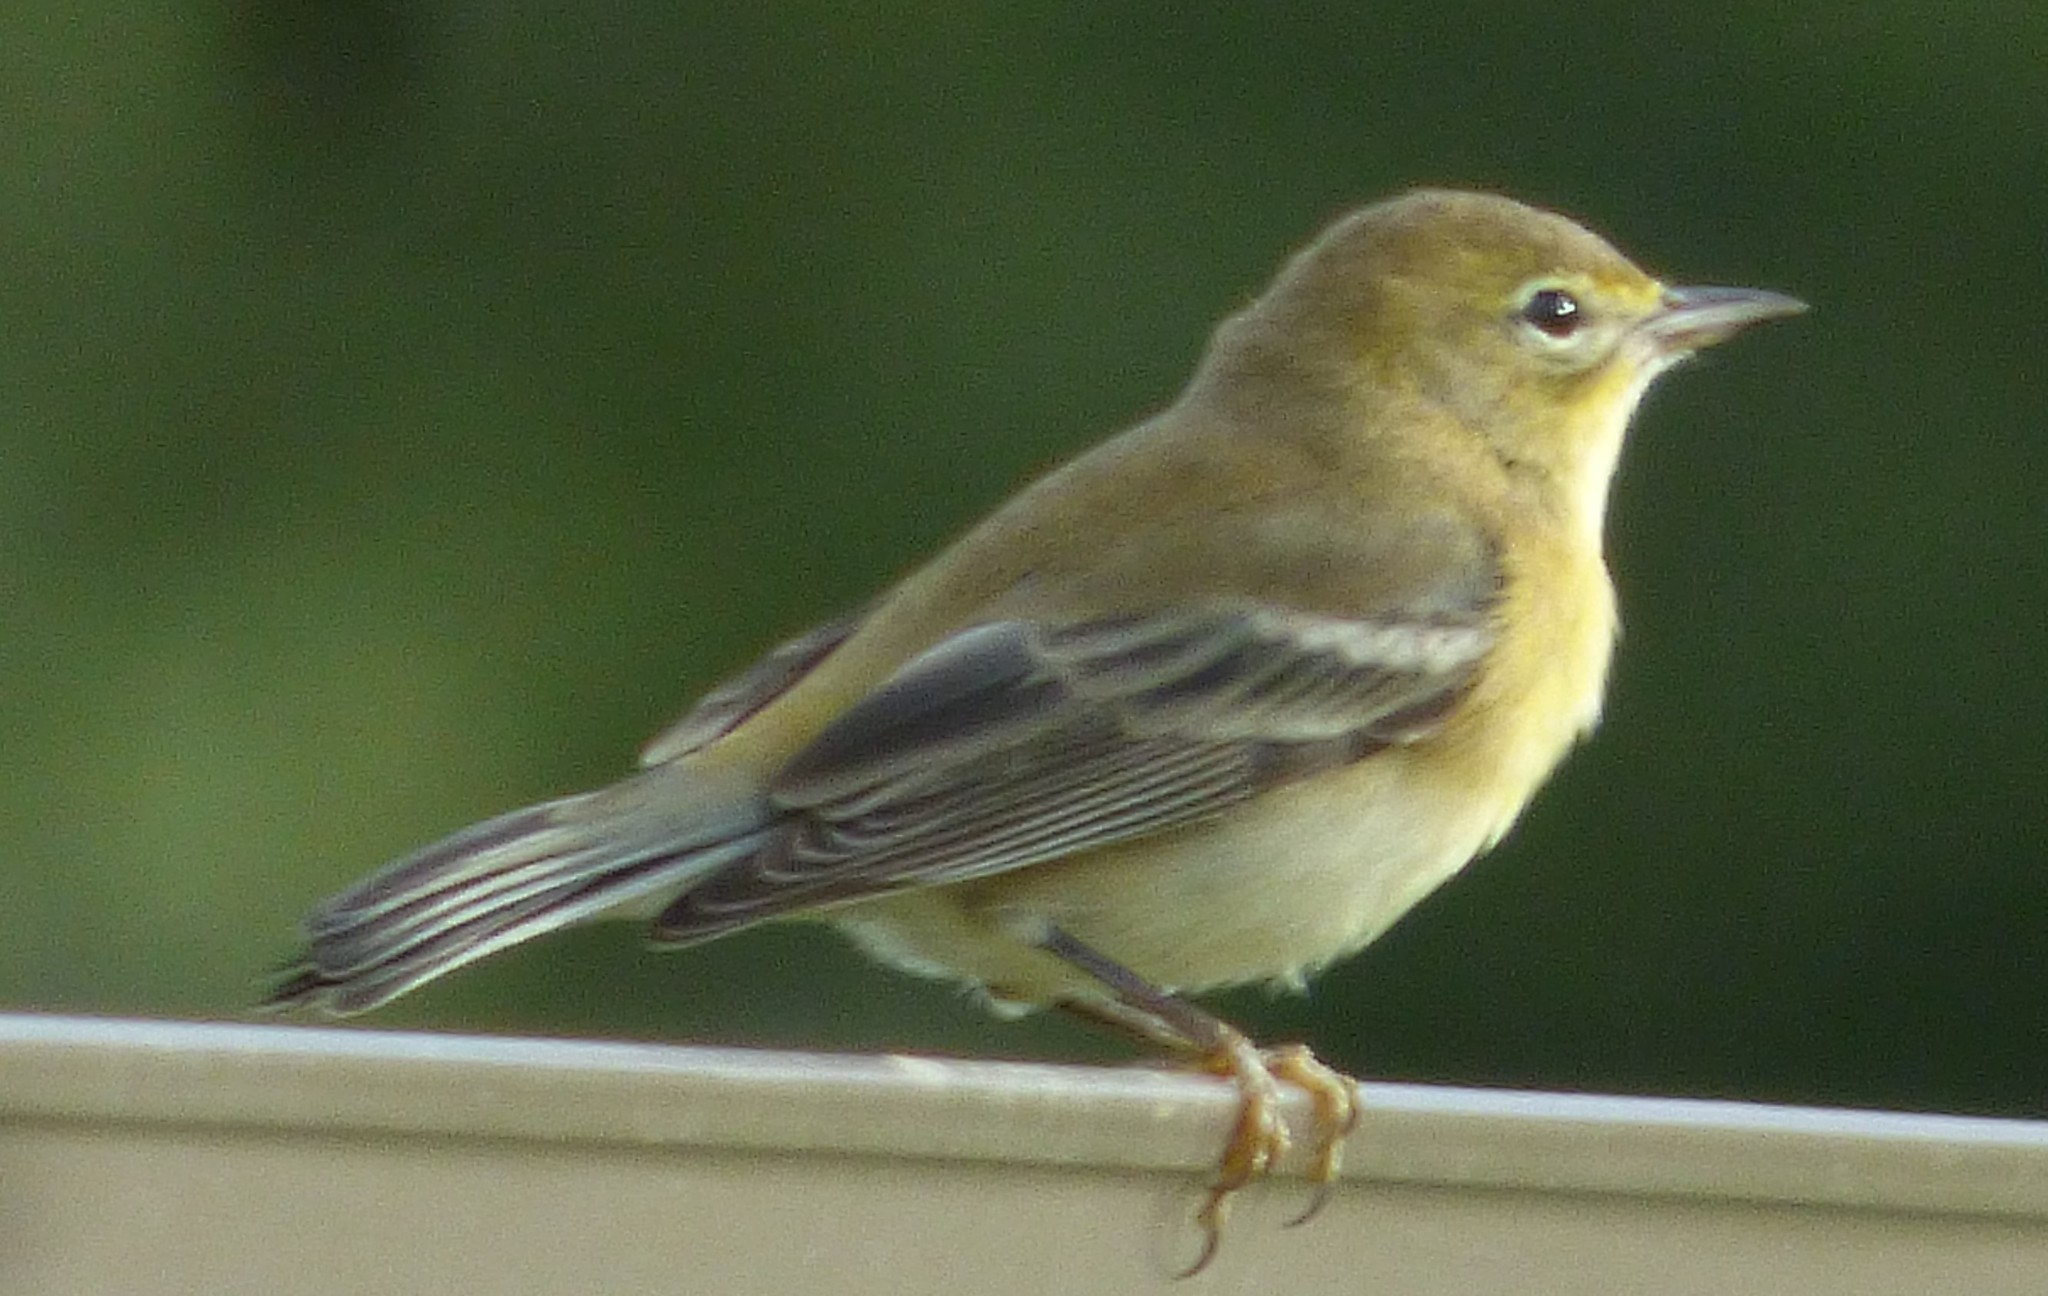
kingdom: Animalia
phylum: Chordata
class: Aves
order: Passeriformes
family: Parulidae
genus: Setophaga
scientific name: Setophaga palmarum
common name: Palm warbler
